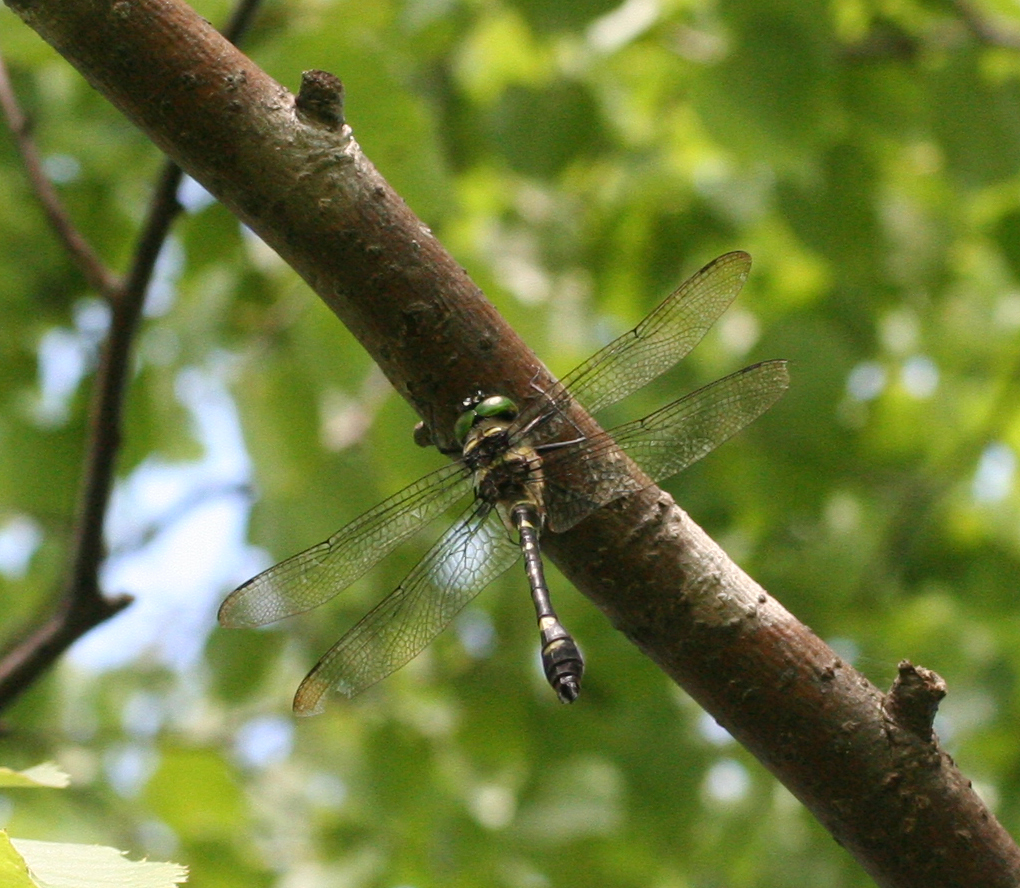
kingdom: Animalia
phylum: Arthropoda
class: Insecta
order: Odonata
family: Macromiidae
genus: Macromia
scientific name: Macromia amphigena
